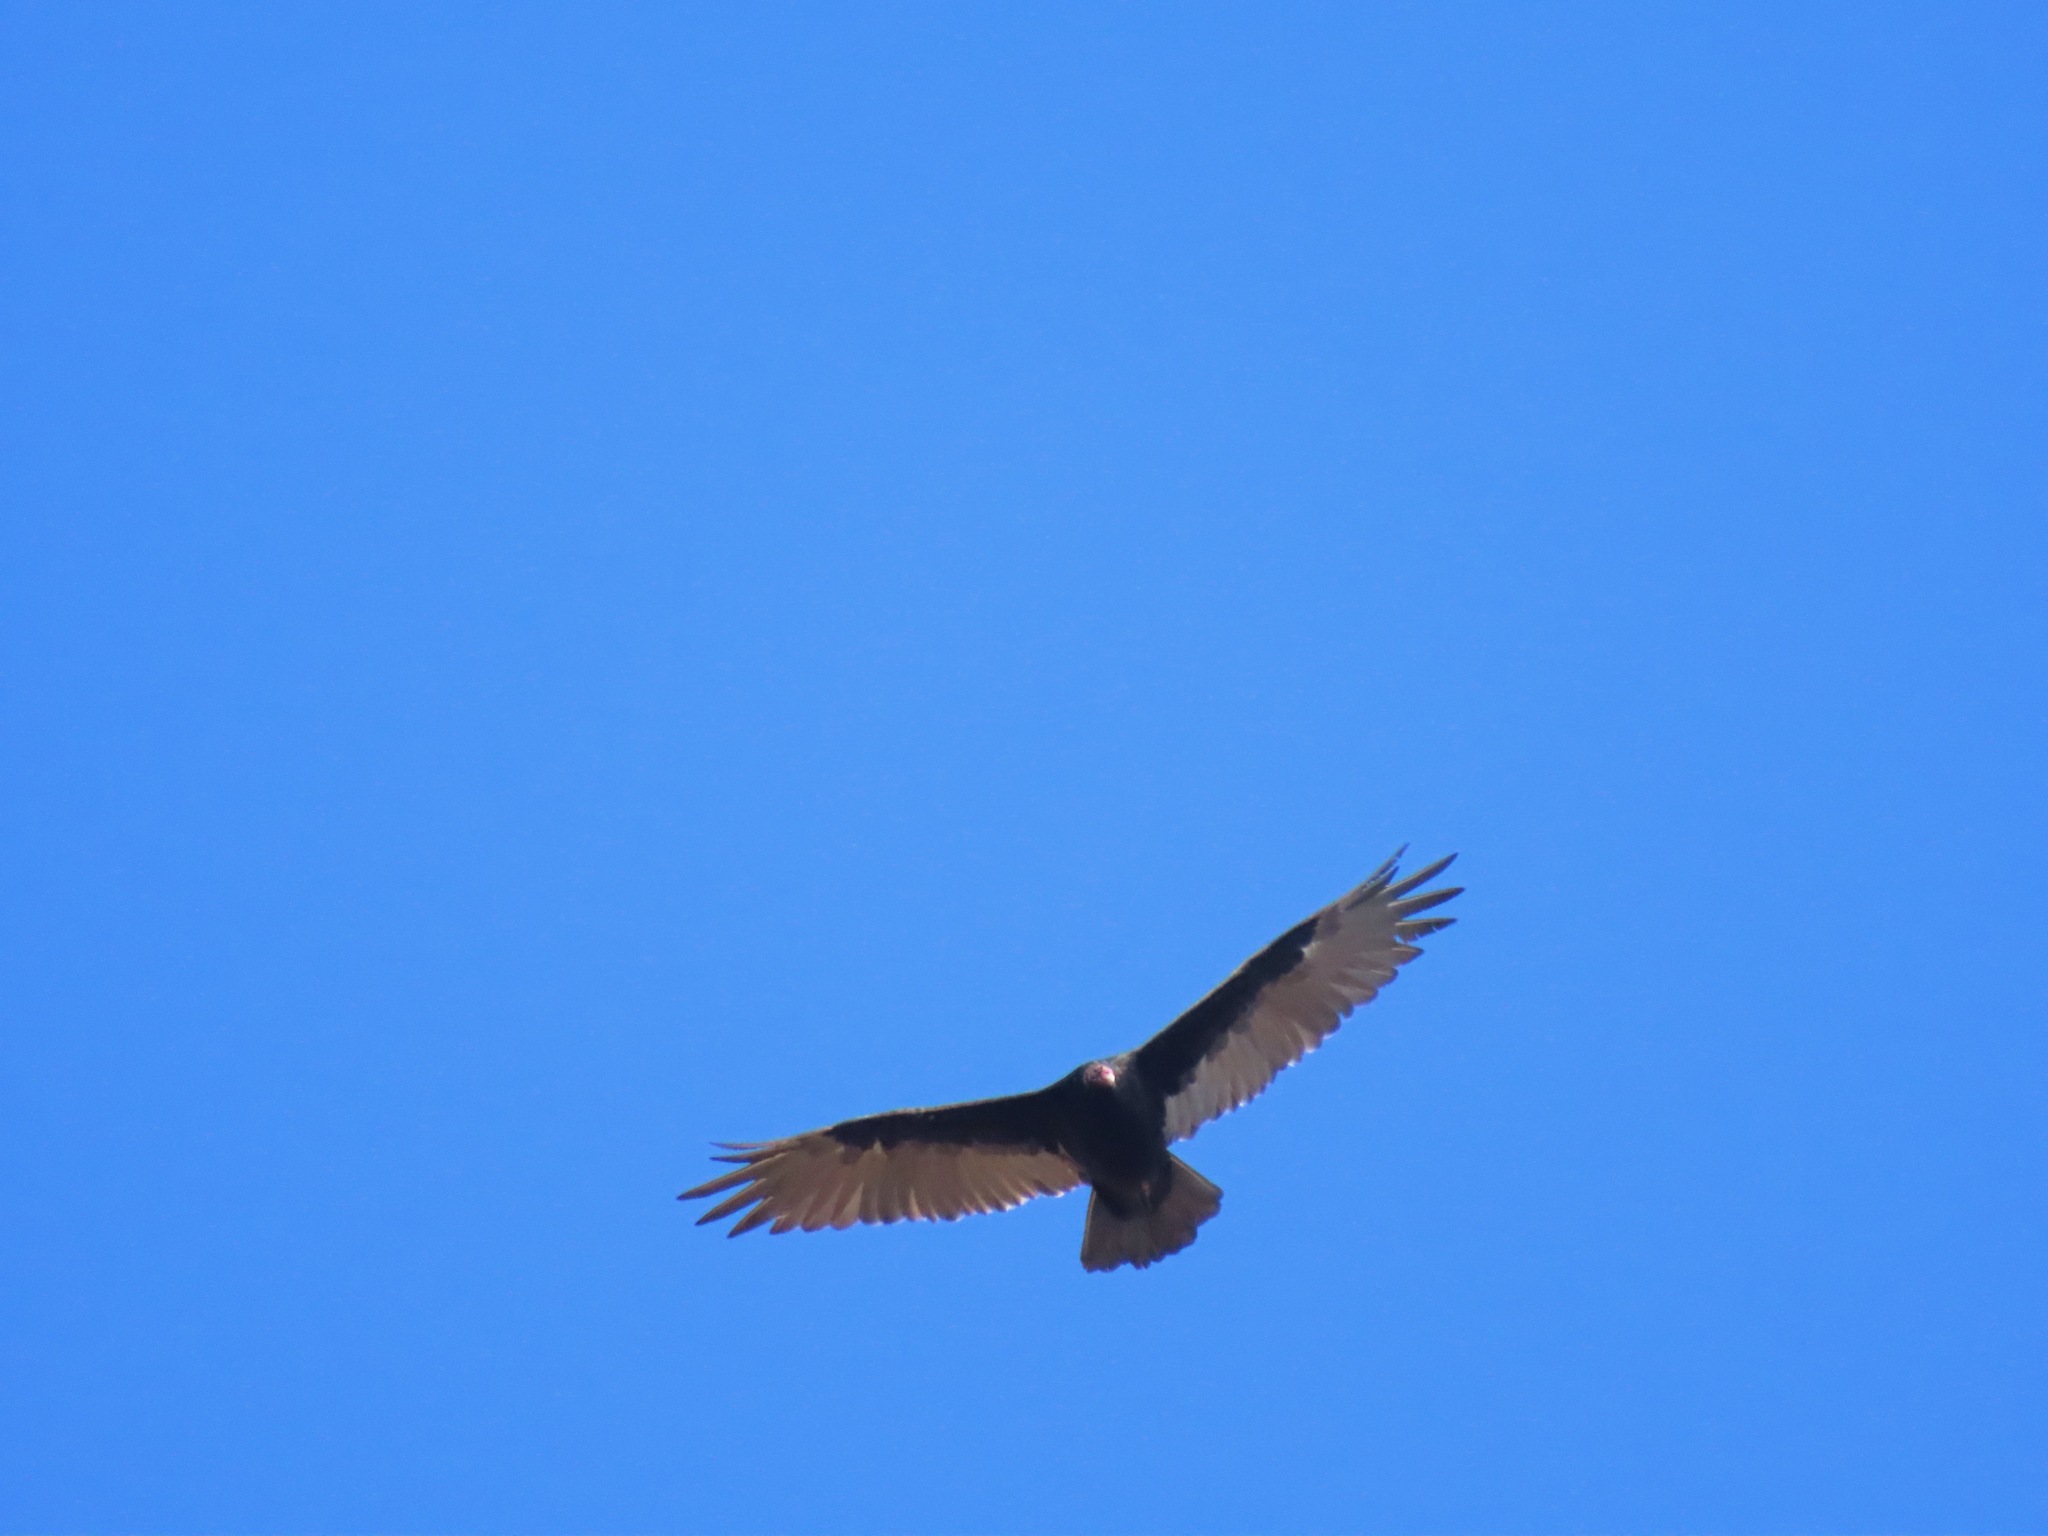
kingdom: Animalia
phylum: Chordata
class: Aves
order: Accipitriformes
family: Cathartidae
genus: Cathartes
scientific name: Cathartes aura
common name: Turkey vulture
